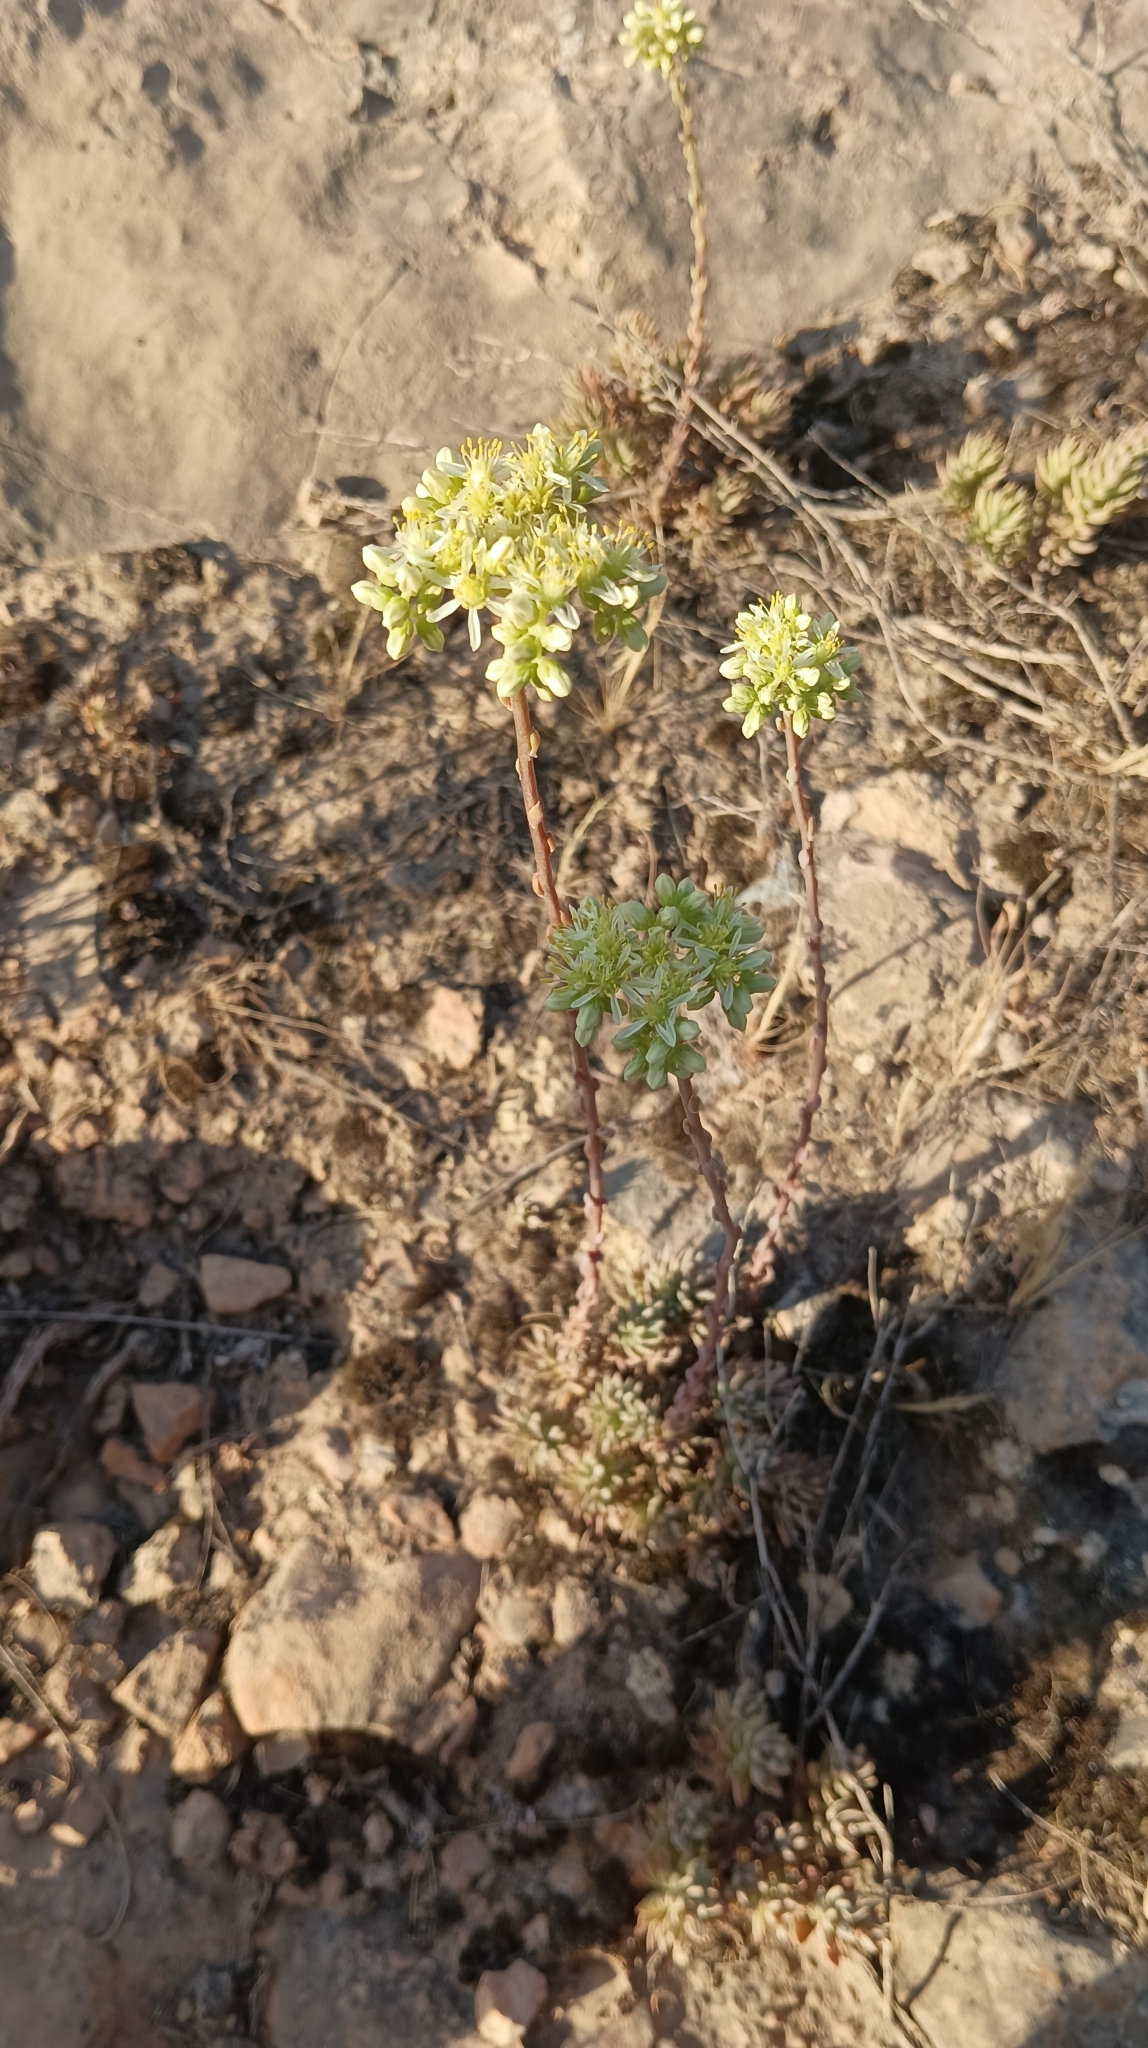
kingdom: Plantae
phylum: Tracheophyta
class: Magnoliopsida
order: Saxifragales
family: Crassulaceae
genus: Petrosedum
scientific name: Petrosedum sediforme
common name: Pale stonecrop
